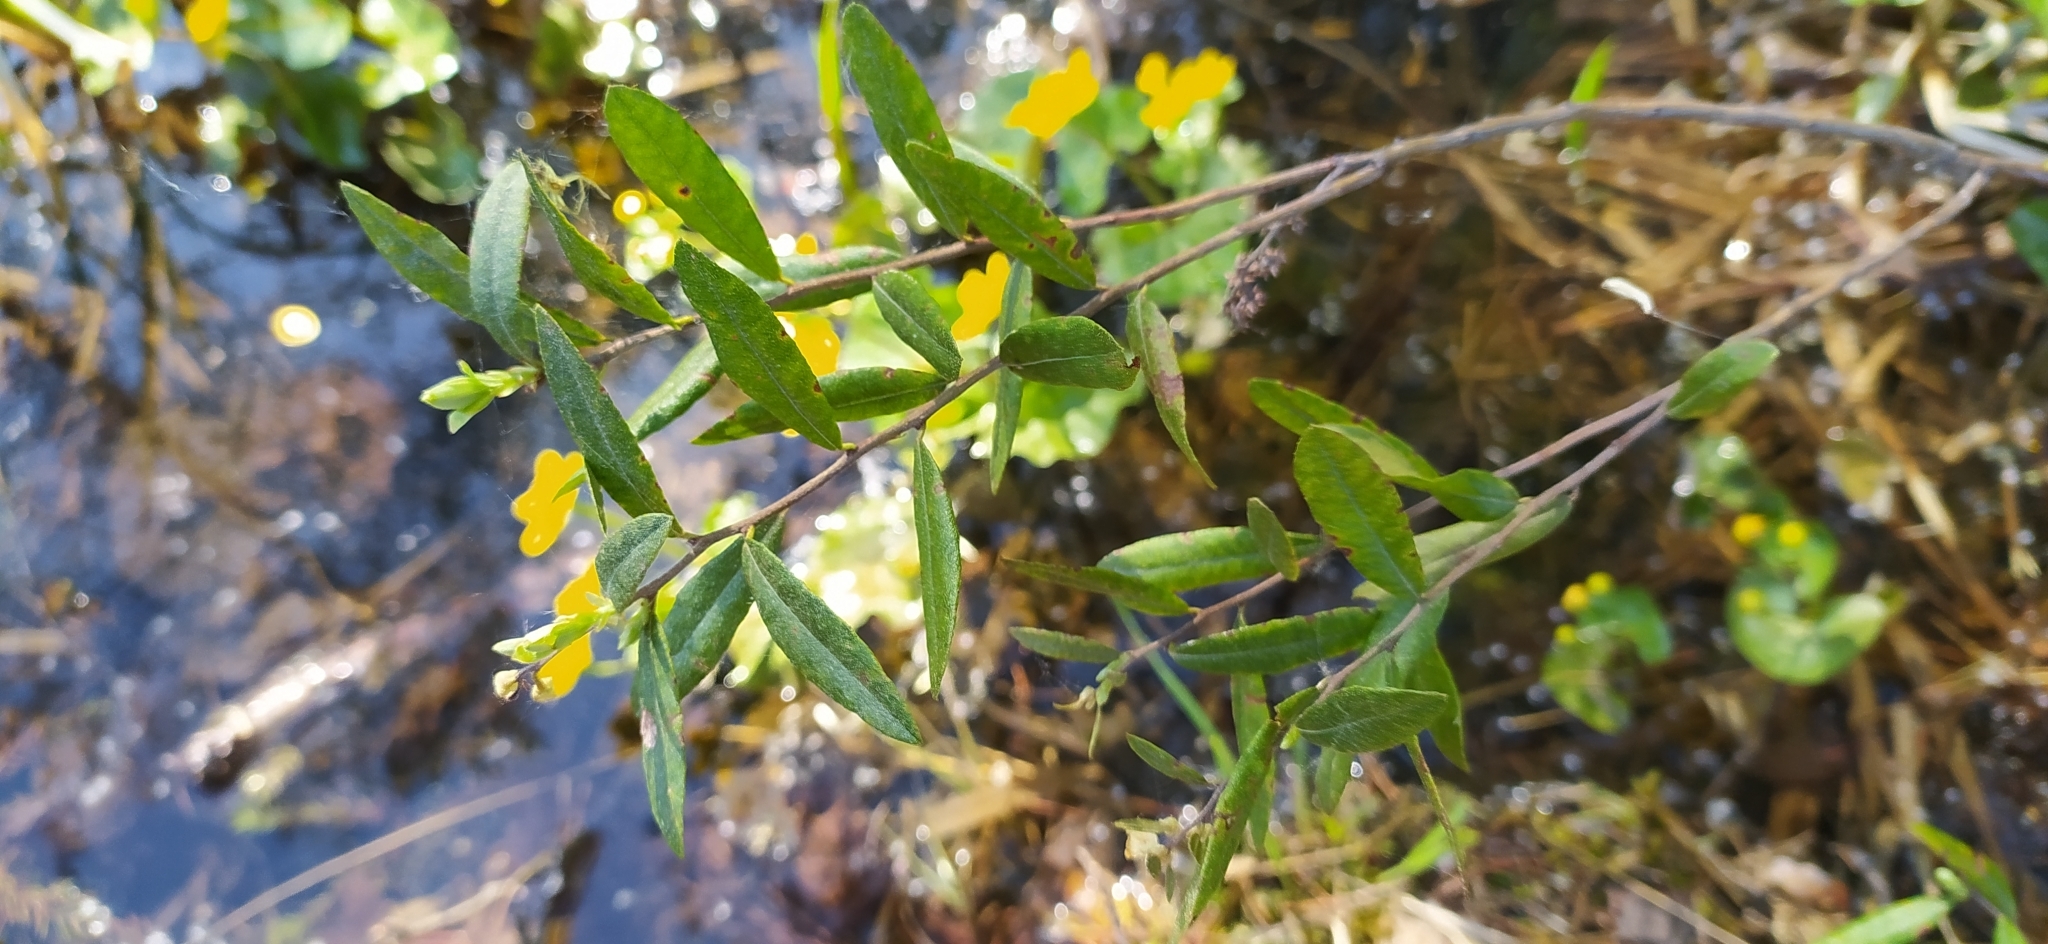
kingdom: Plantae
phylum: Tracheophyta
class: Magnoliopsida
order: Ericales
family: Ericaceae
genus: Chamaedaphne
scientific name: Chamaedaphne calyculata
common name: Leatherleaf
